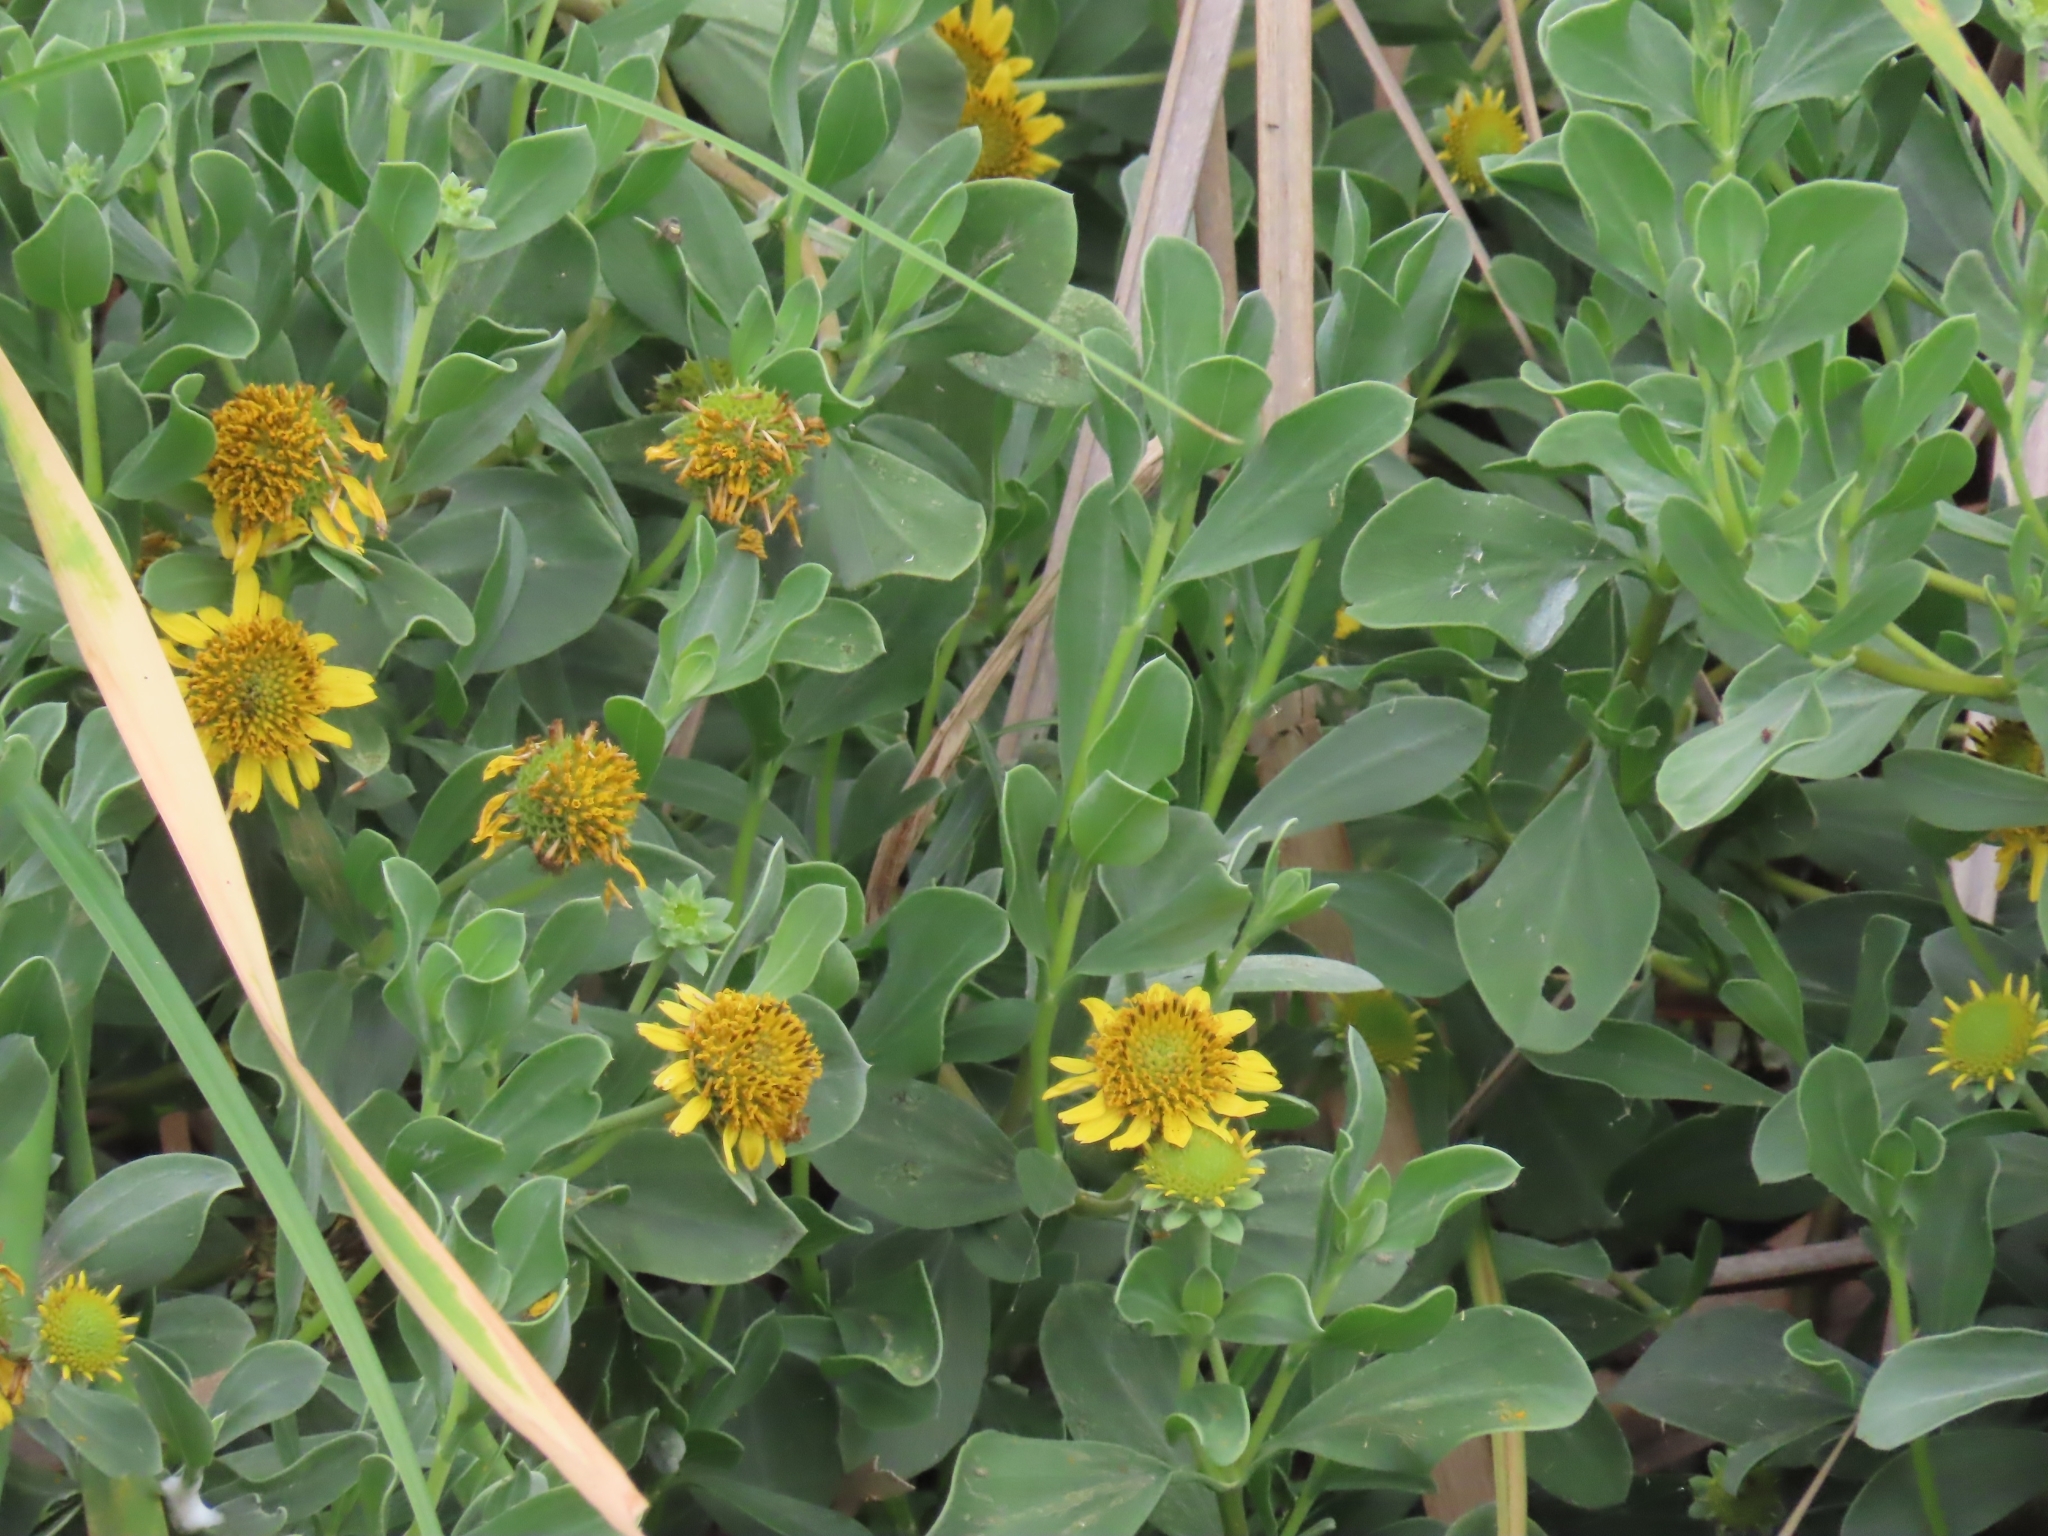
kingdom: Plantae
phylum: Tracheophyta
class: Magnoliopsida
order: Asterales
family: Asteraceae
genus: Borrichia
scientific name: Borrichia frutescens
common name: Sea oxeye
